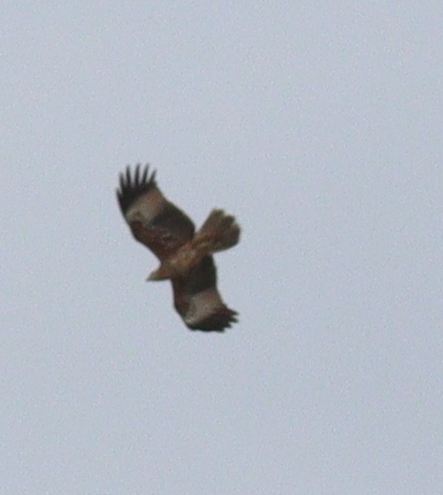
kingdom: Animalia
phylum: Chordata
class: Aves
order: Accipitriformes
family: Accipitridae
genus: Haliastur
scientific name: Haliastur indus
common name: Brahminy kite
